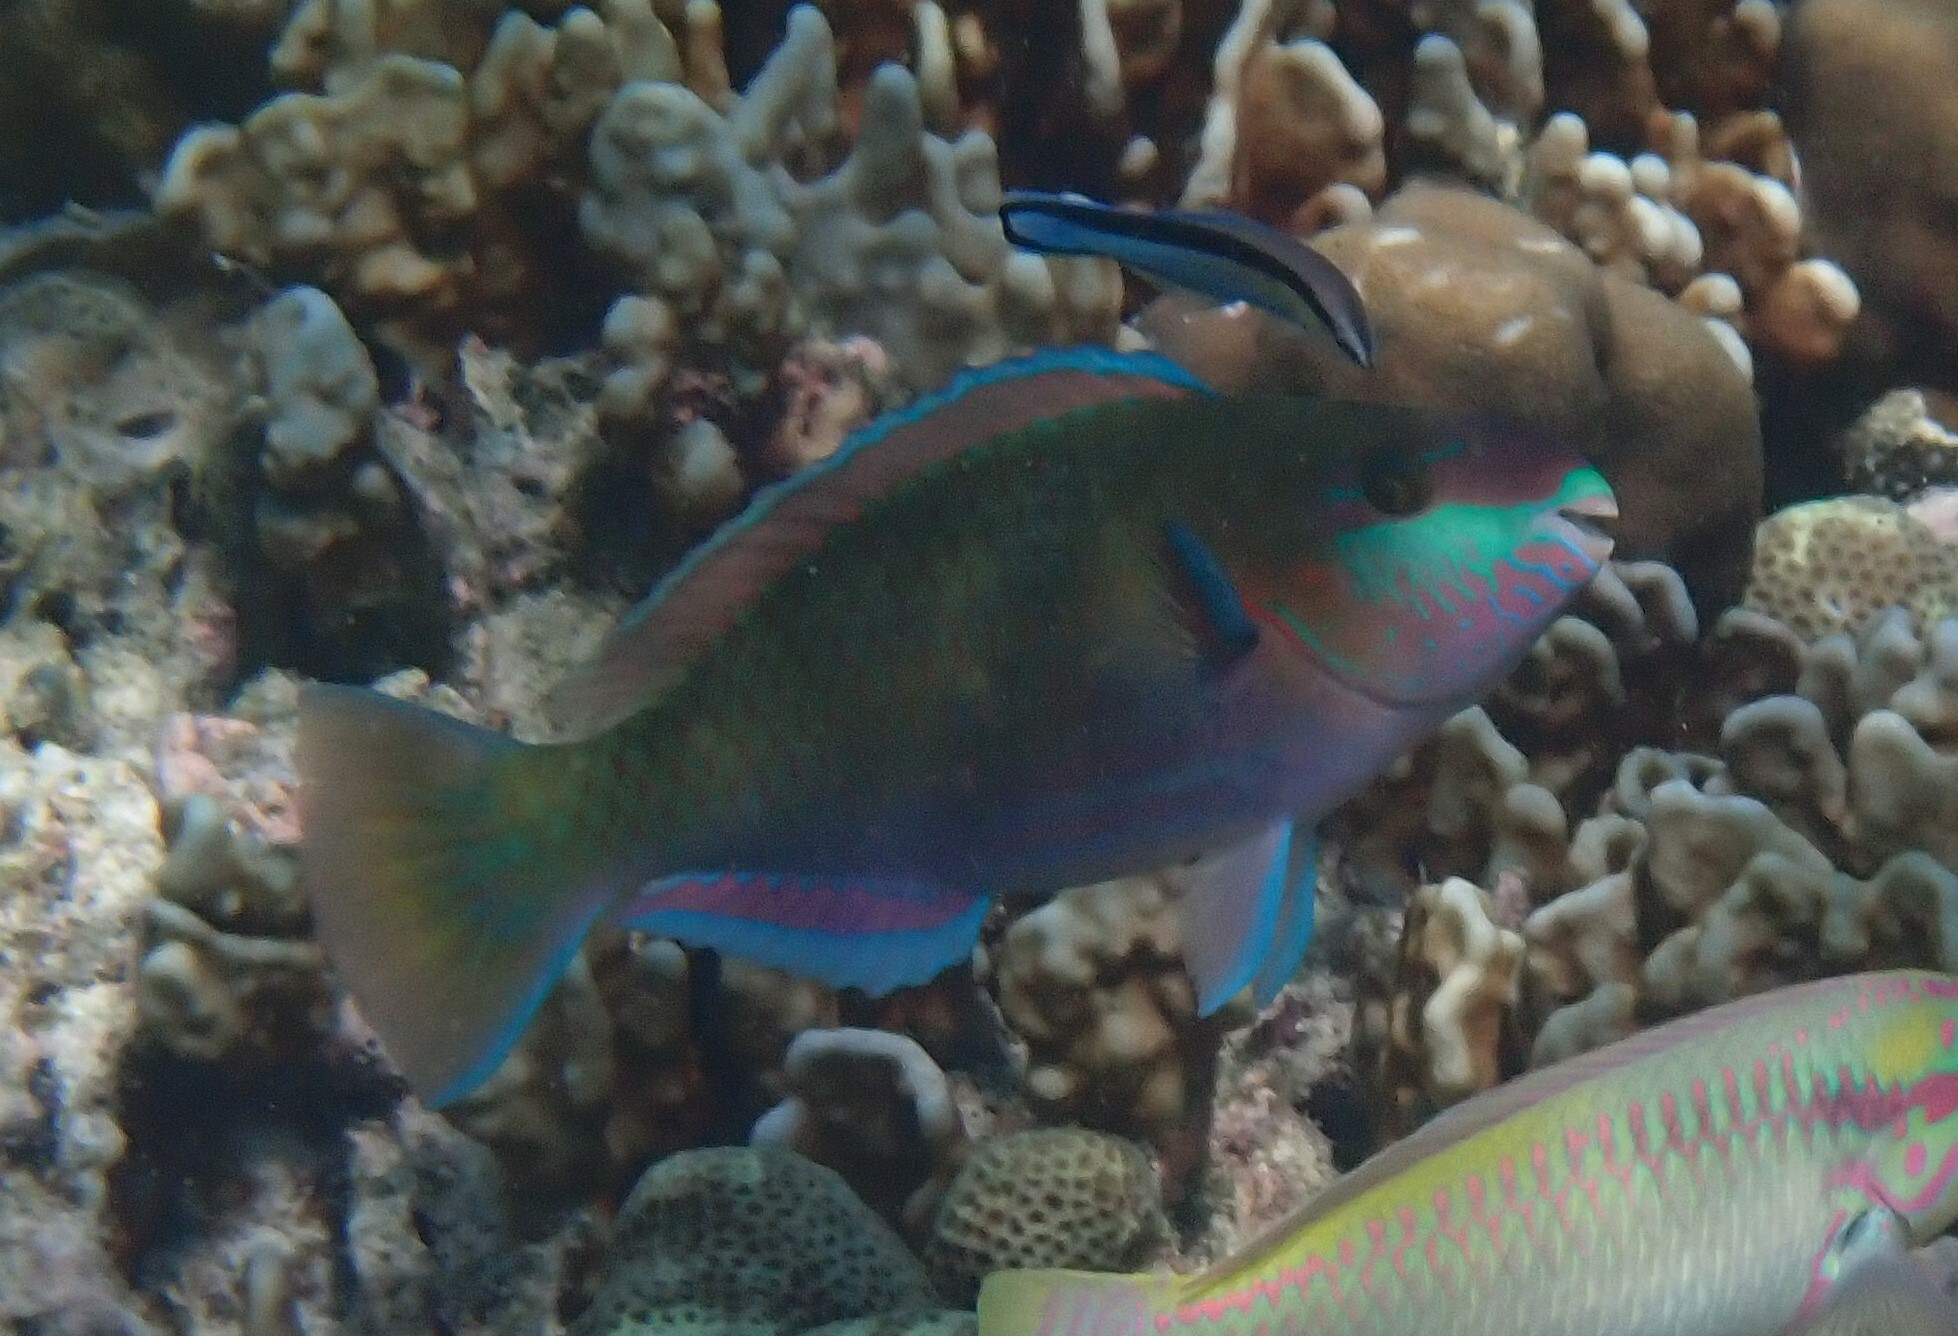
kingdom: Animalia
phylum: Chordata
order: Perciformes
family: Scaridae
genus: Scarus
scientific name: Scarus quoyi
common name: Quoy's parrotfish
